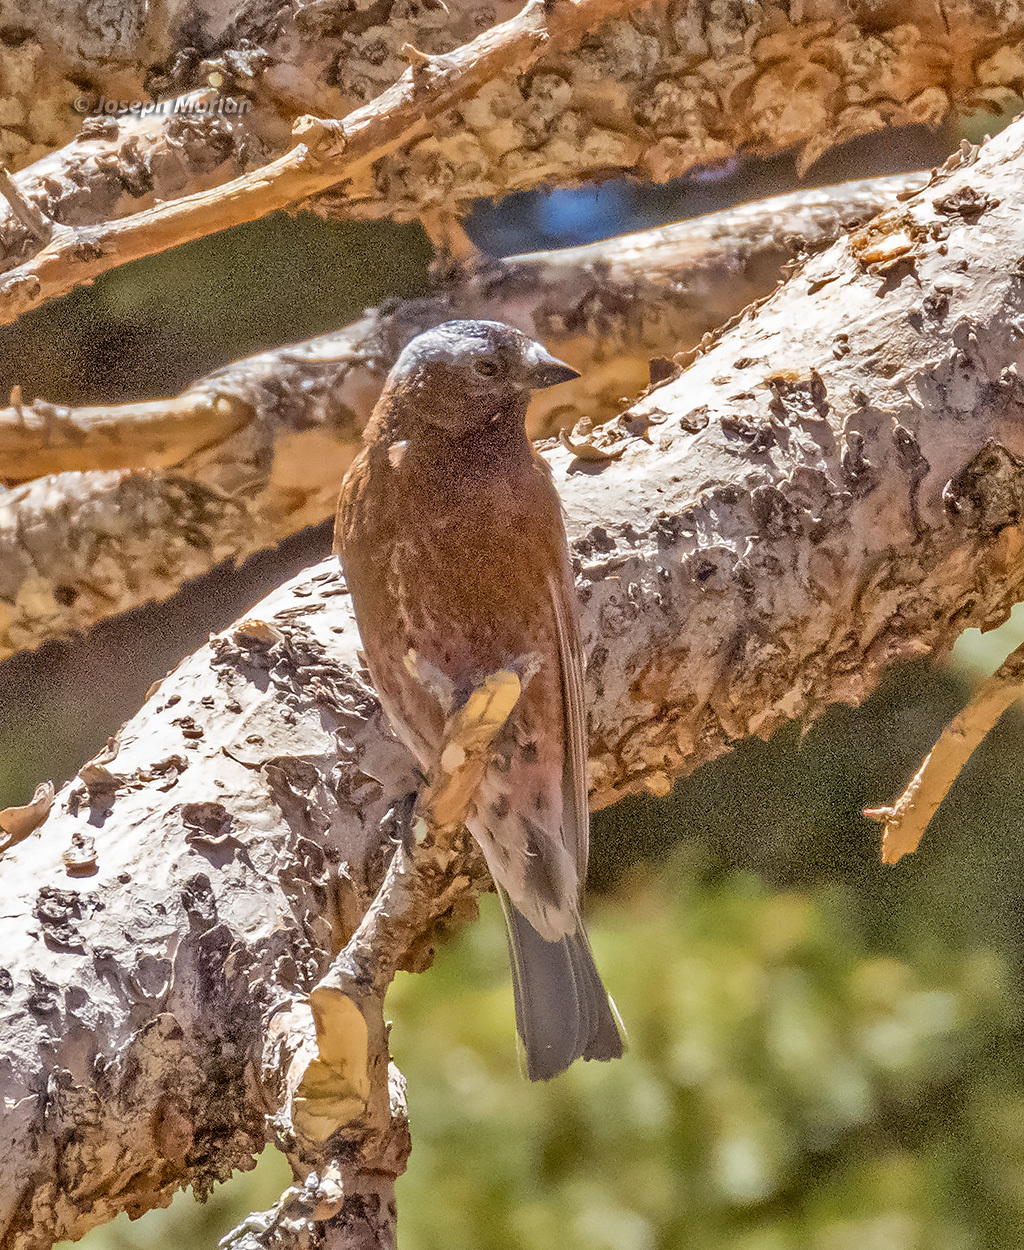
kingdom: Animalia
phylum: Chordata
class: Aves
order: Passeriformes
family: Fringillidae
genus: Leucosticte
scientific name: Leucosticte tephrocotis
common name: Gray-crowned rosy-finch
